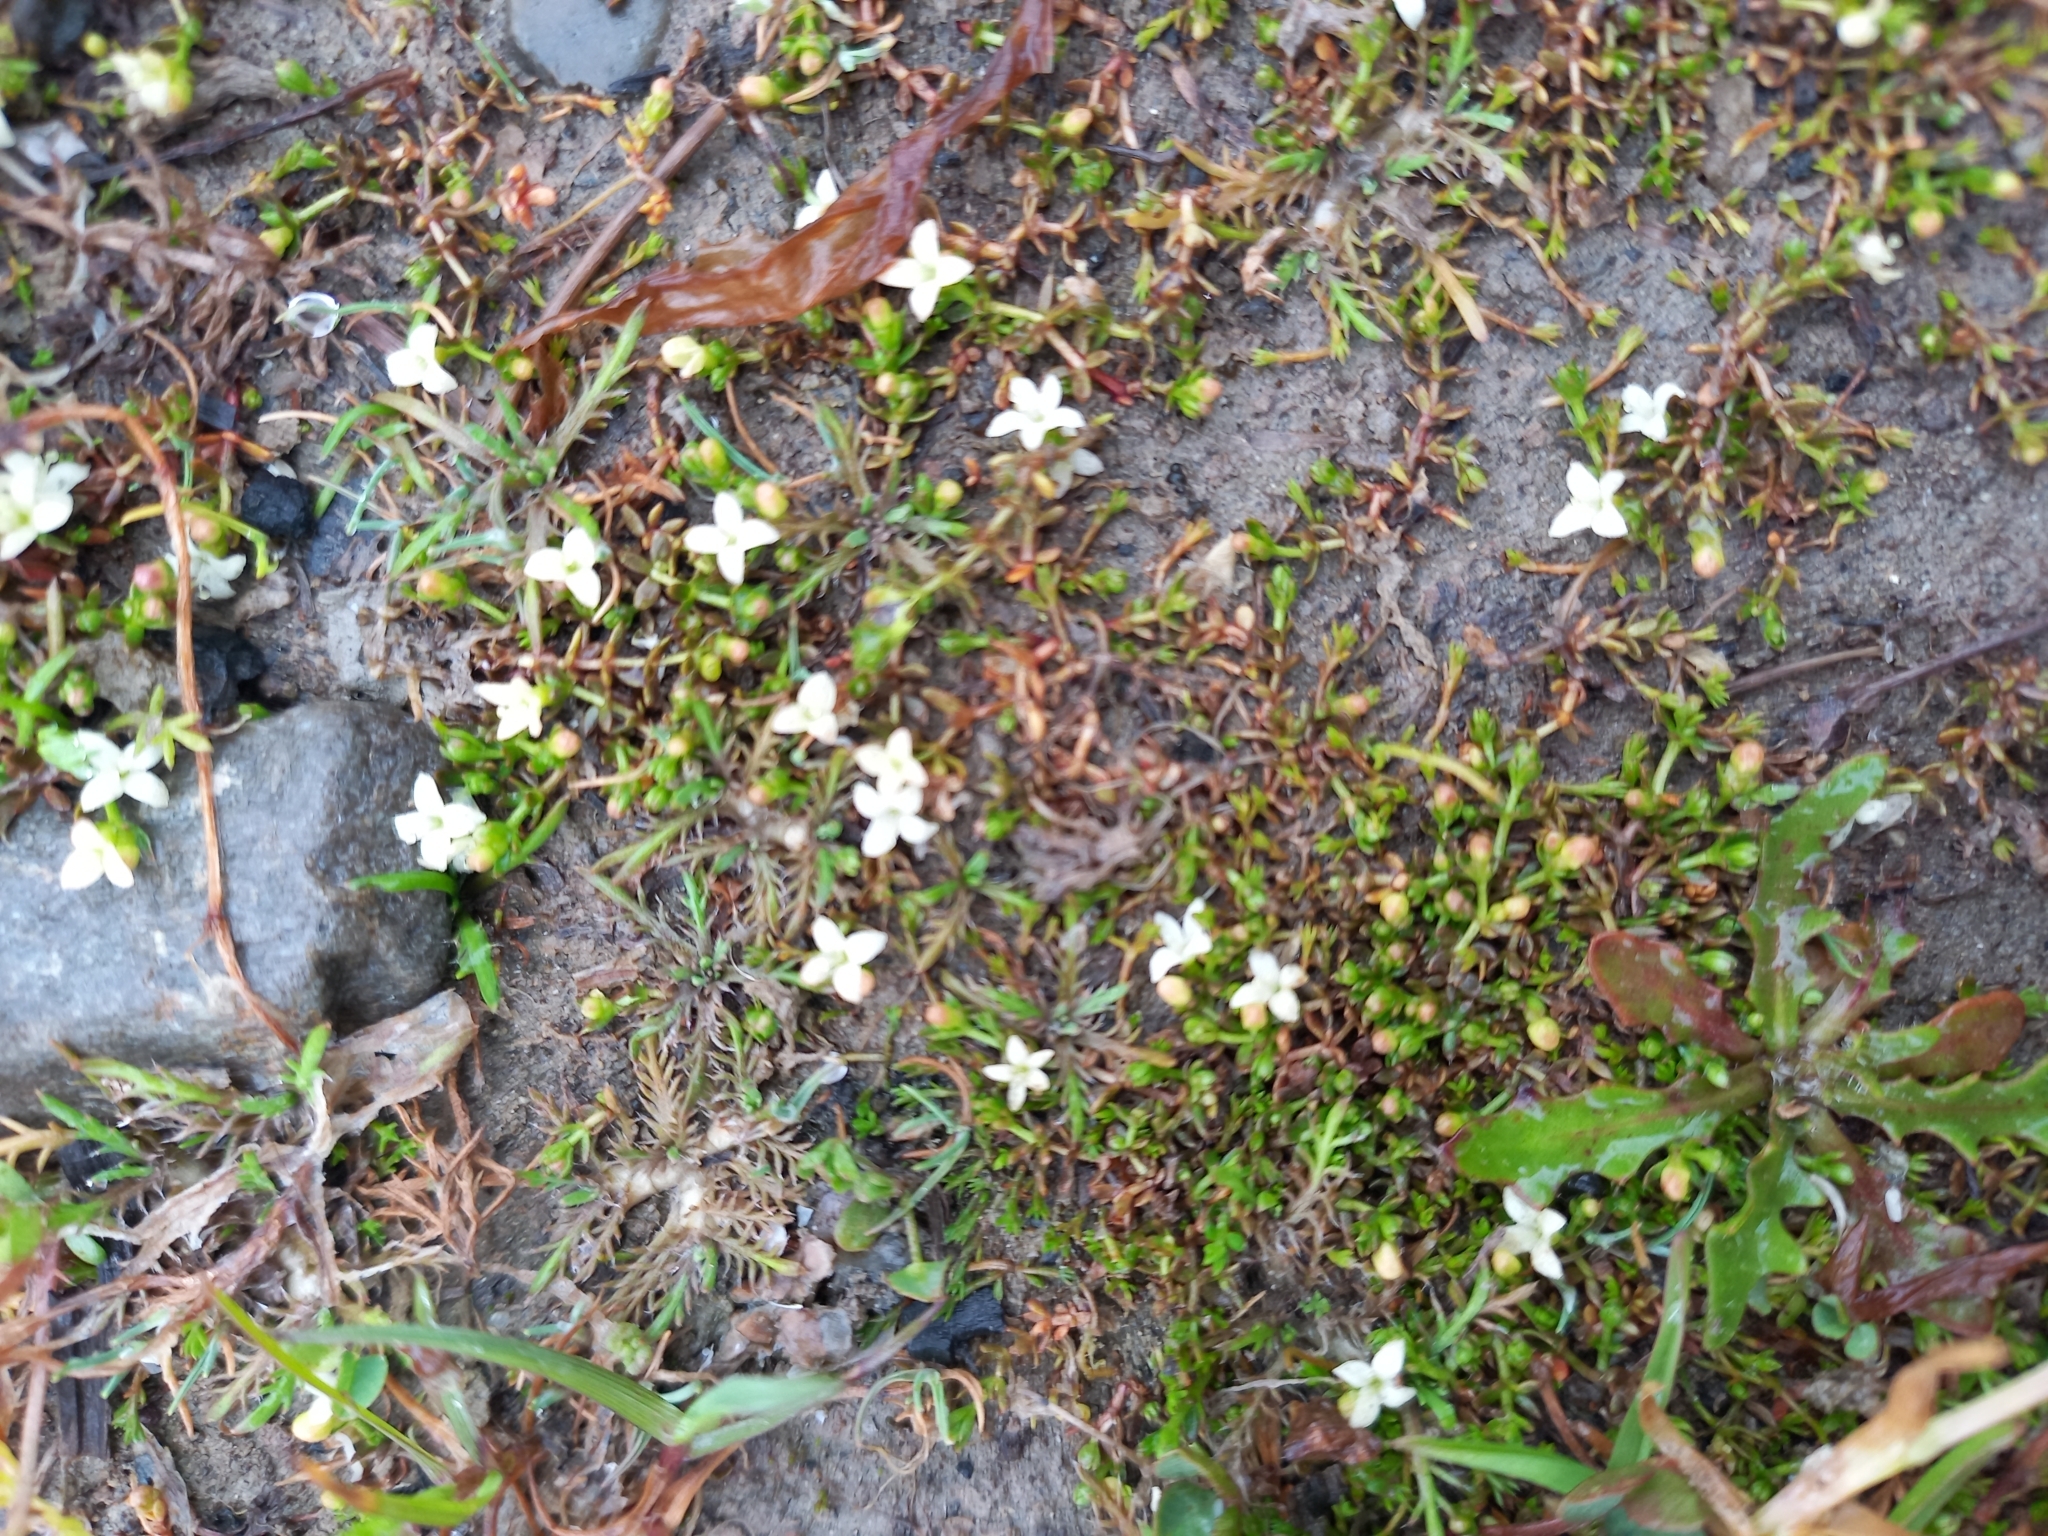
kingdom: Plantae
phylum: Tracheophyta
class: Magnoliopsida
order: Gentianales
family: Rubiaceae
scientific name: Rubiaceae
